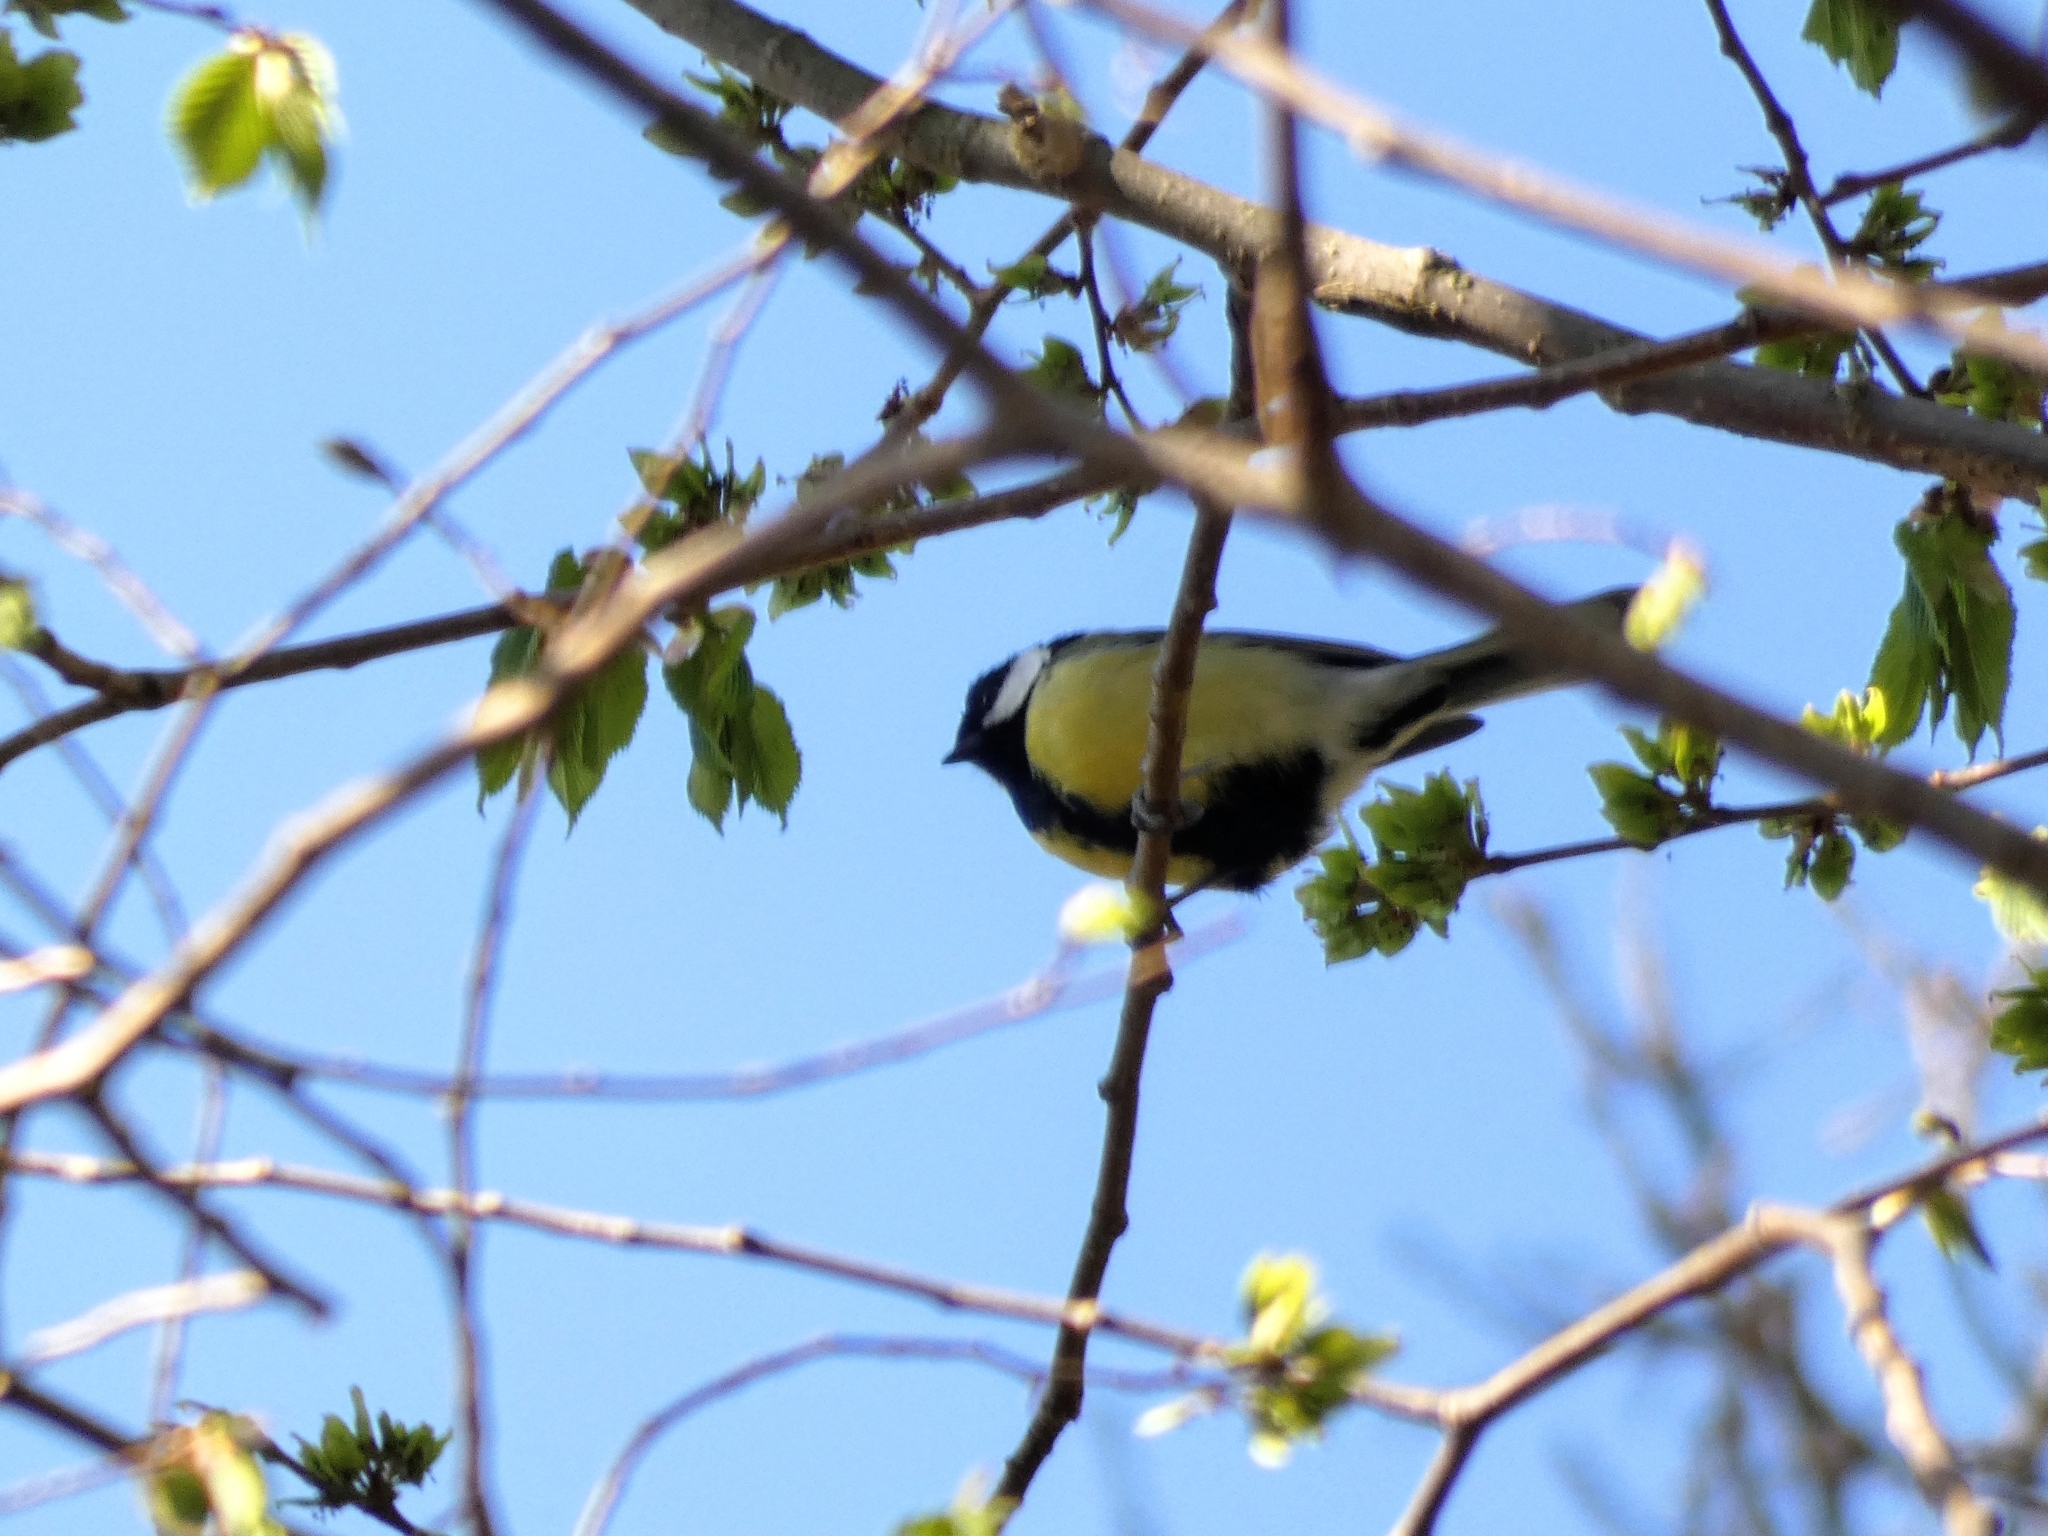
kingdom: Animalia
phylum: Chordata
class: Aves
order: Passeriformes
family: Paridae
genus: Parus
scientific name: Parus major
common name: Great tit
